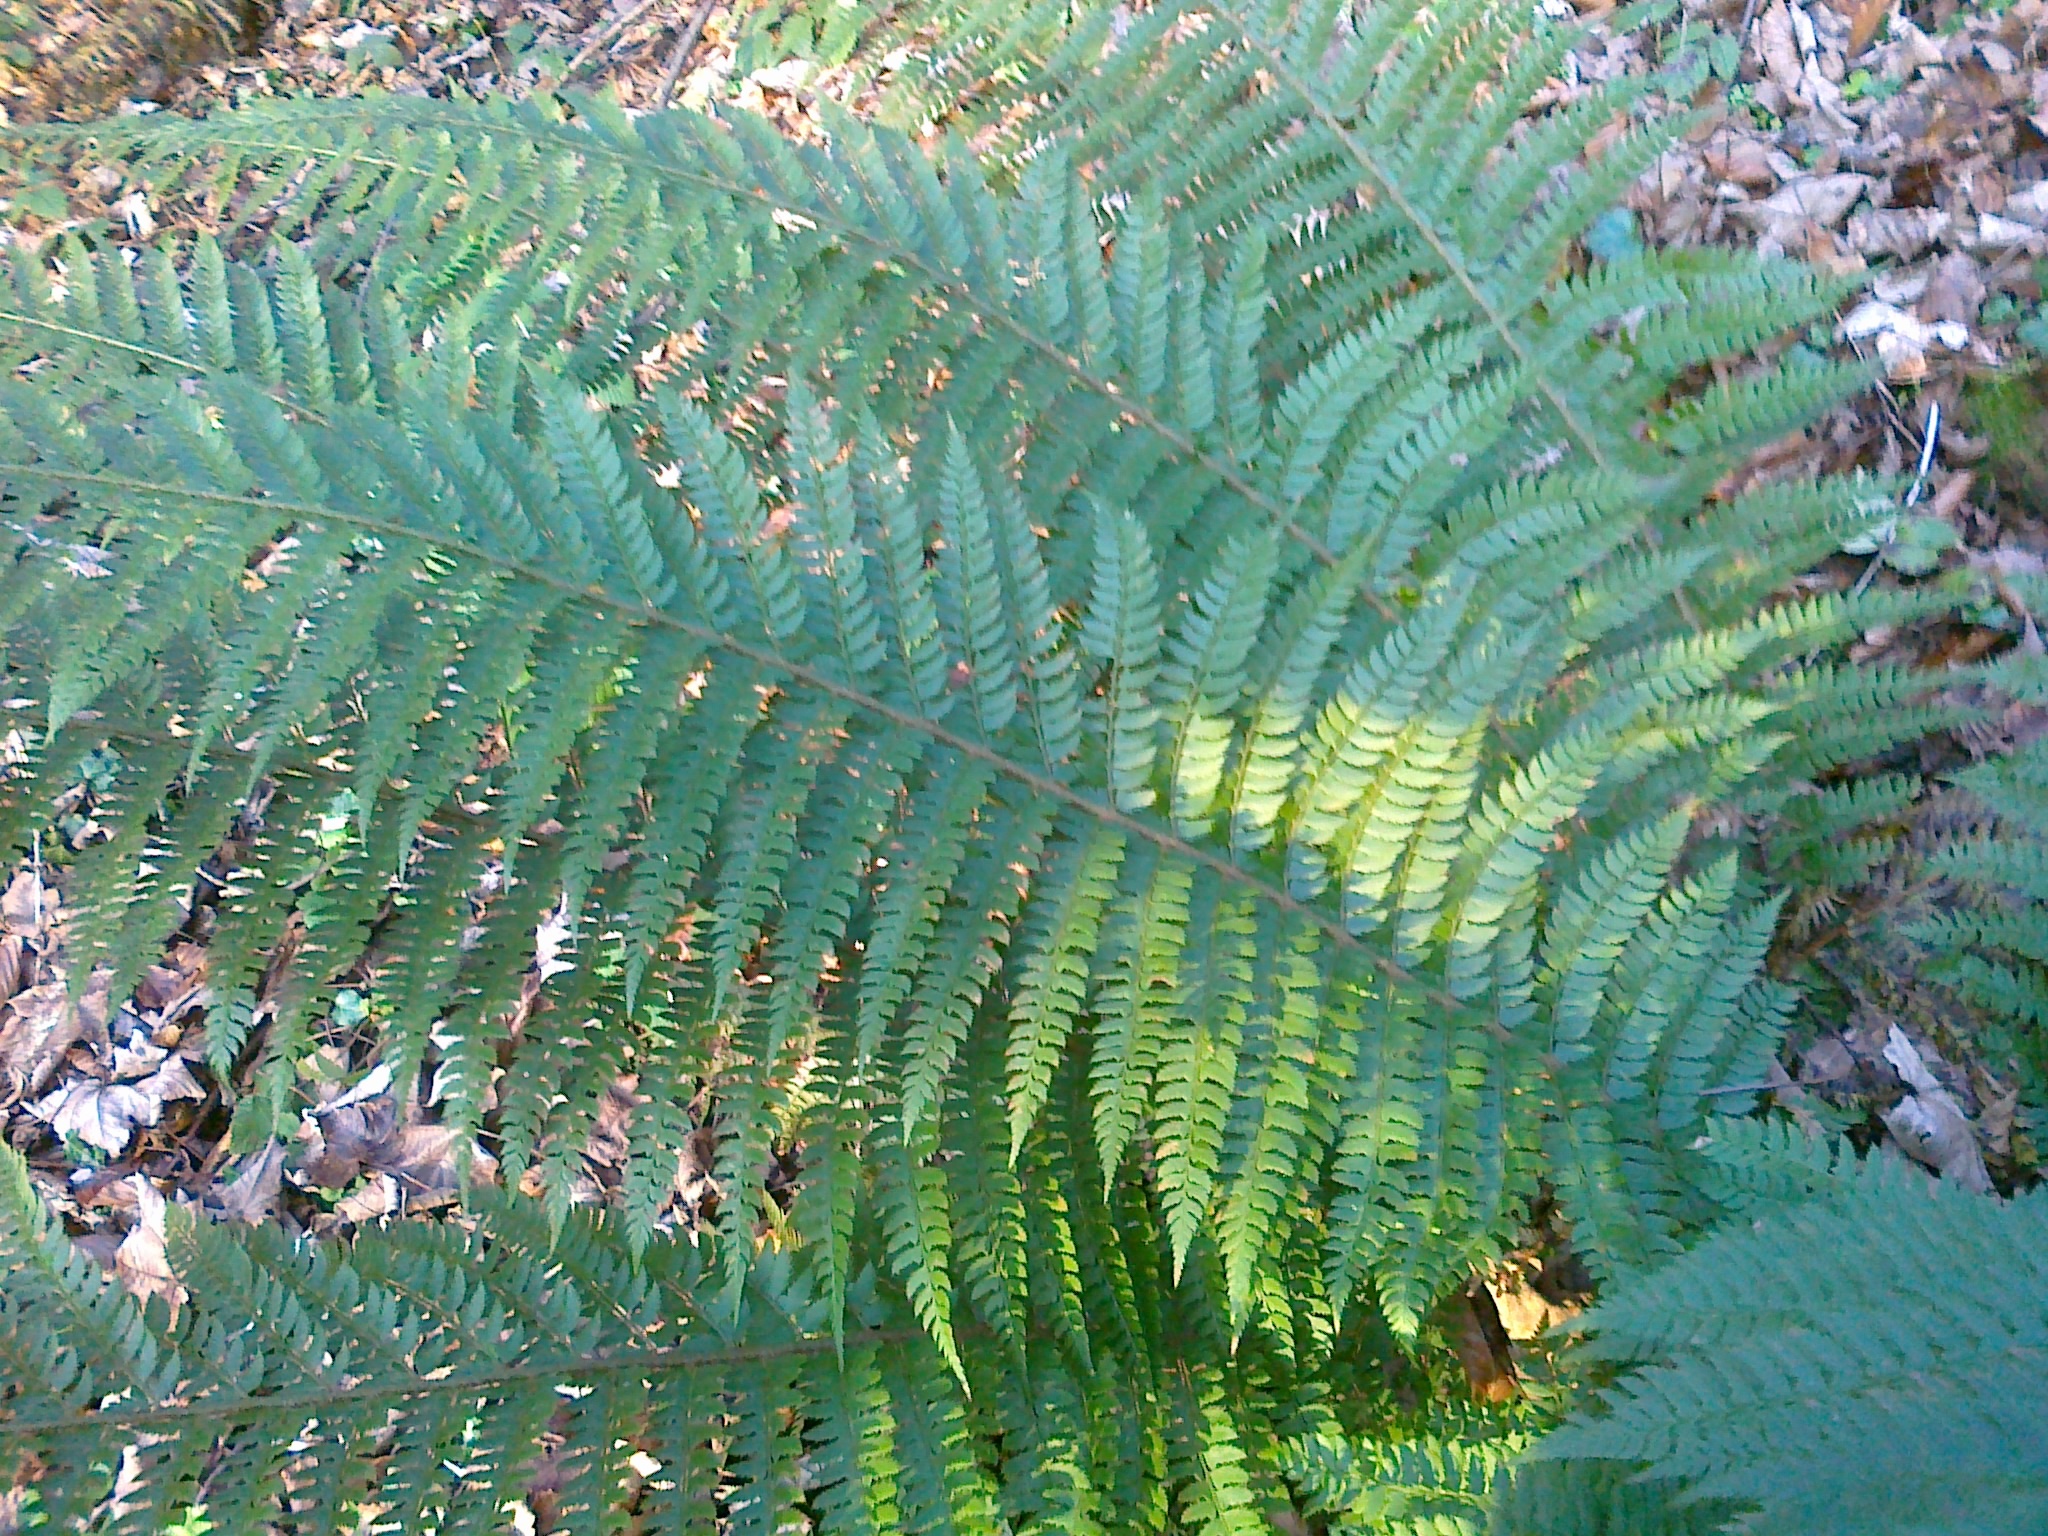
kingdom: Plantae
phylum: Tracheophyta
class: Polypodiopsida
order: Polypodiales
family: Dryopteridaceae
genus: Polystichum
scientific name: Polystichum aculeatum
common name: Hard shield-fern
